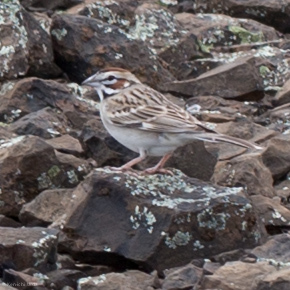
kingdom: Animalia
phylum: Chordata
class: Aves
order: Passeriformes
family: Passerellidae
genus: Chondestes
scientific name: Chondestes grammacus
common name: Lark sparrow
